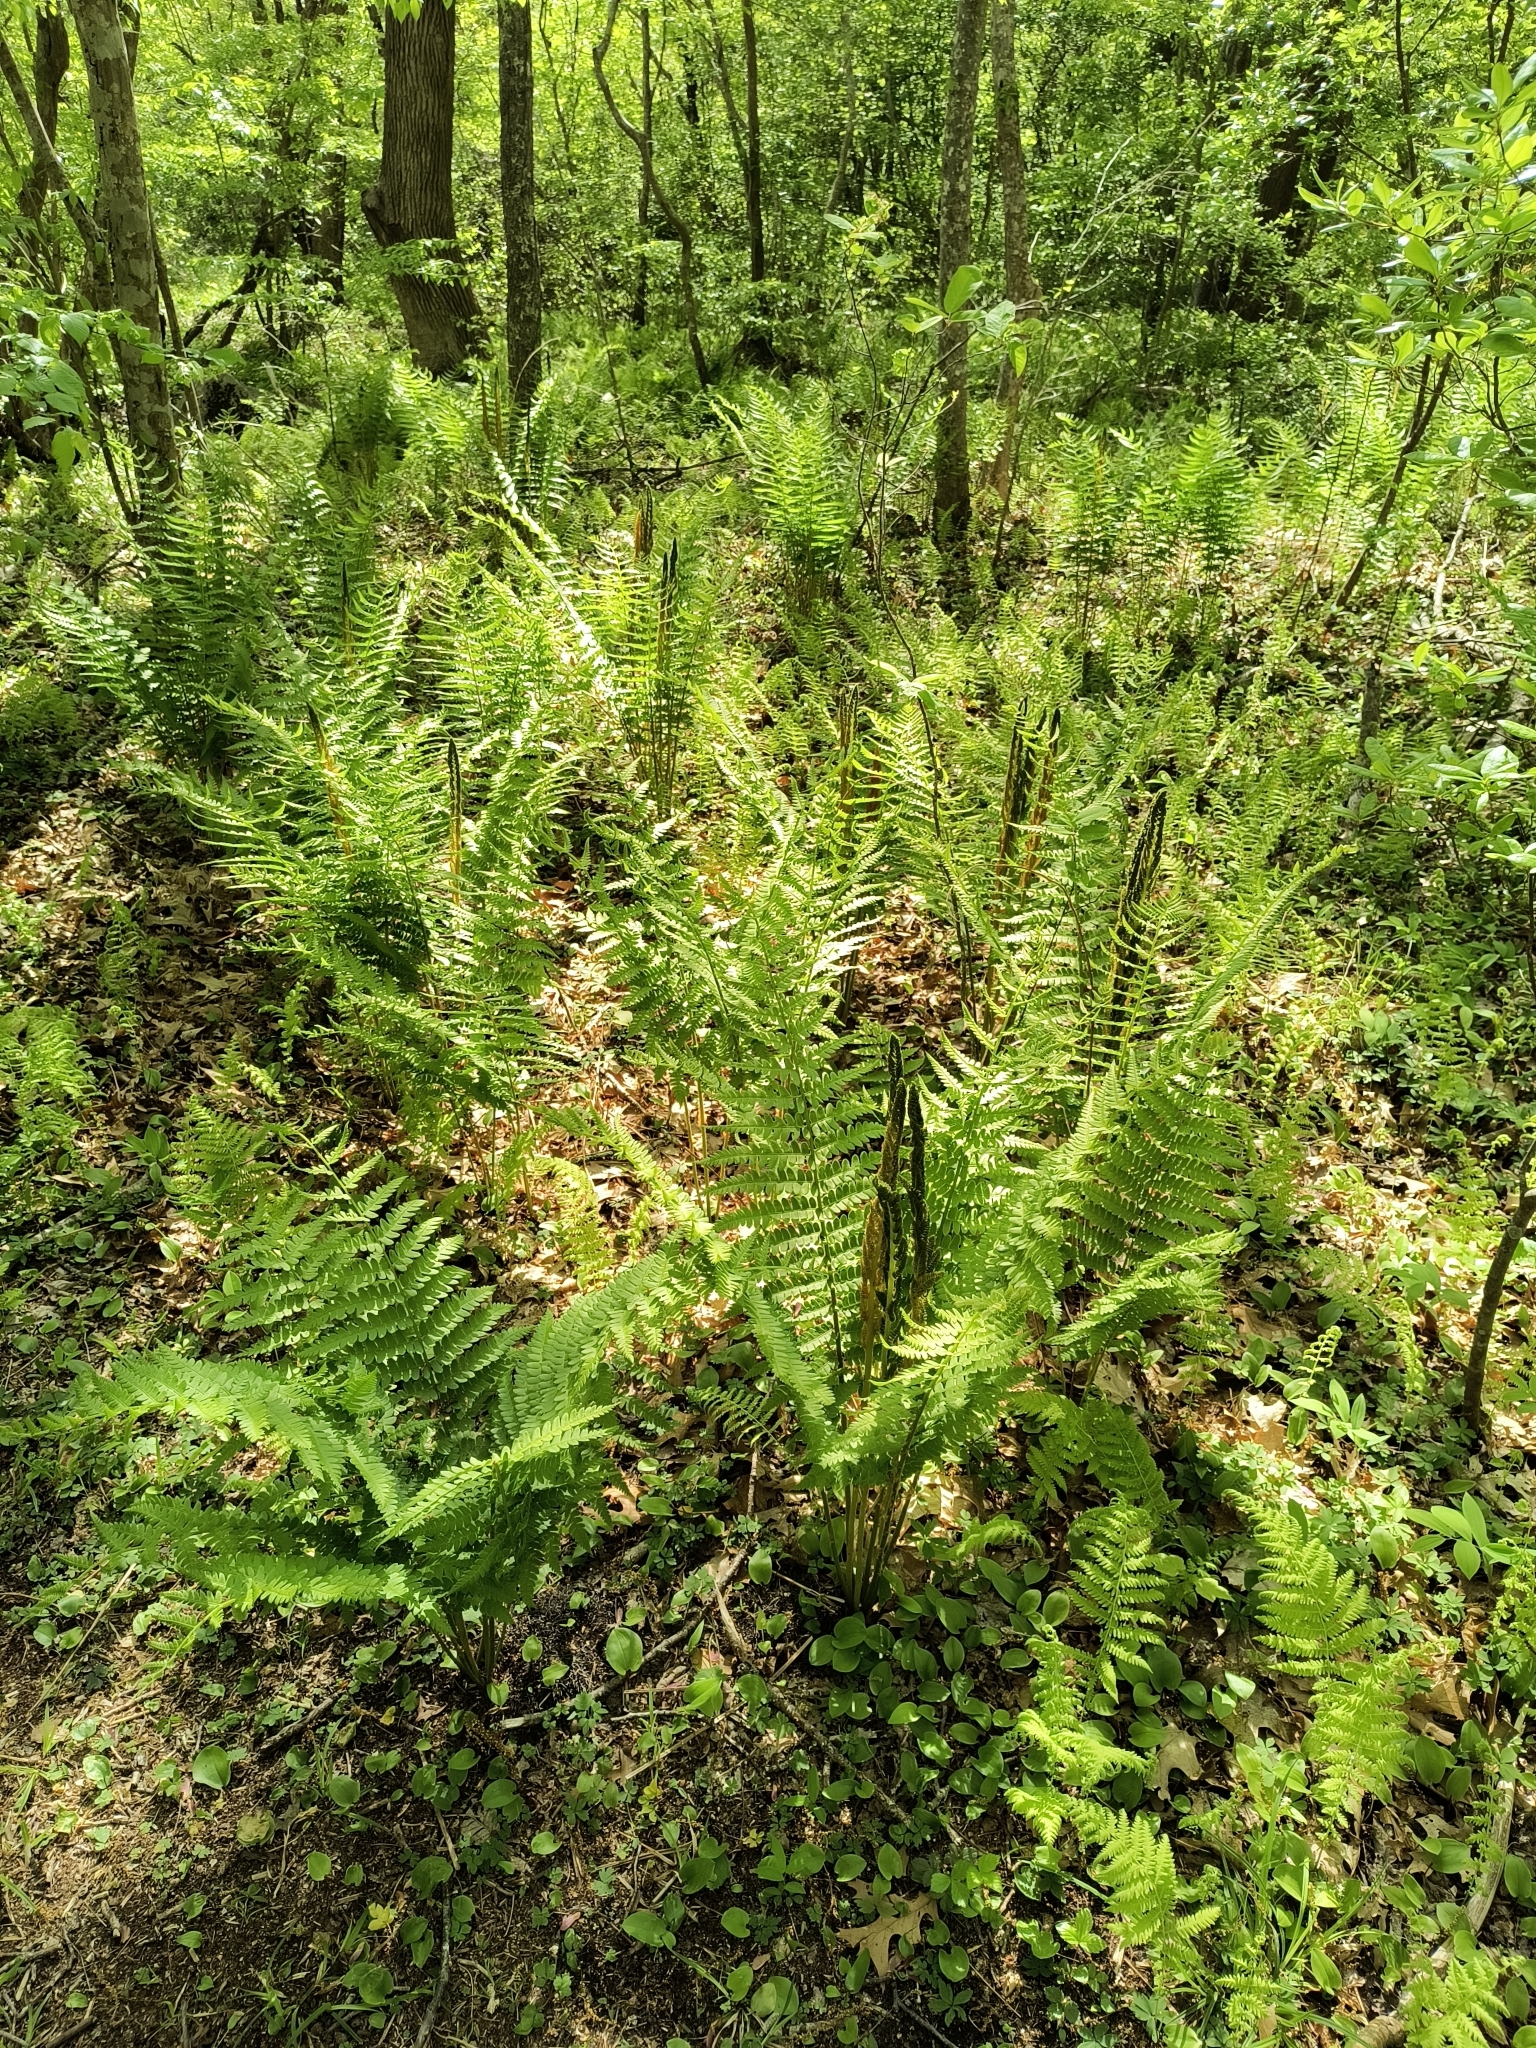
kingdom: Plantae
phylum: Tracheophyta
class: Polypodiopsida
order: Osmundales
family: Osmundaceae
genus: Osmundastrum
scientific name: Osmundastrum cinnamomeum
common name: Cinnamon fern
